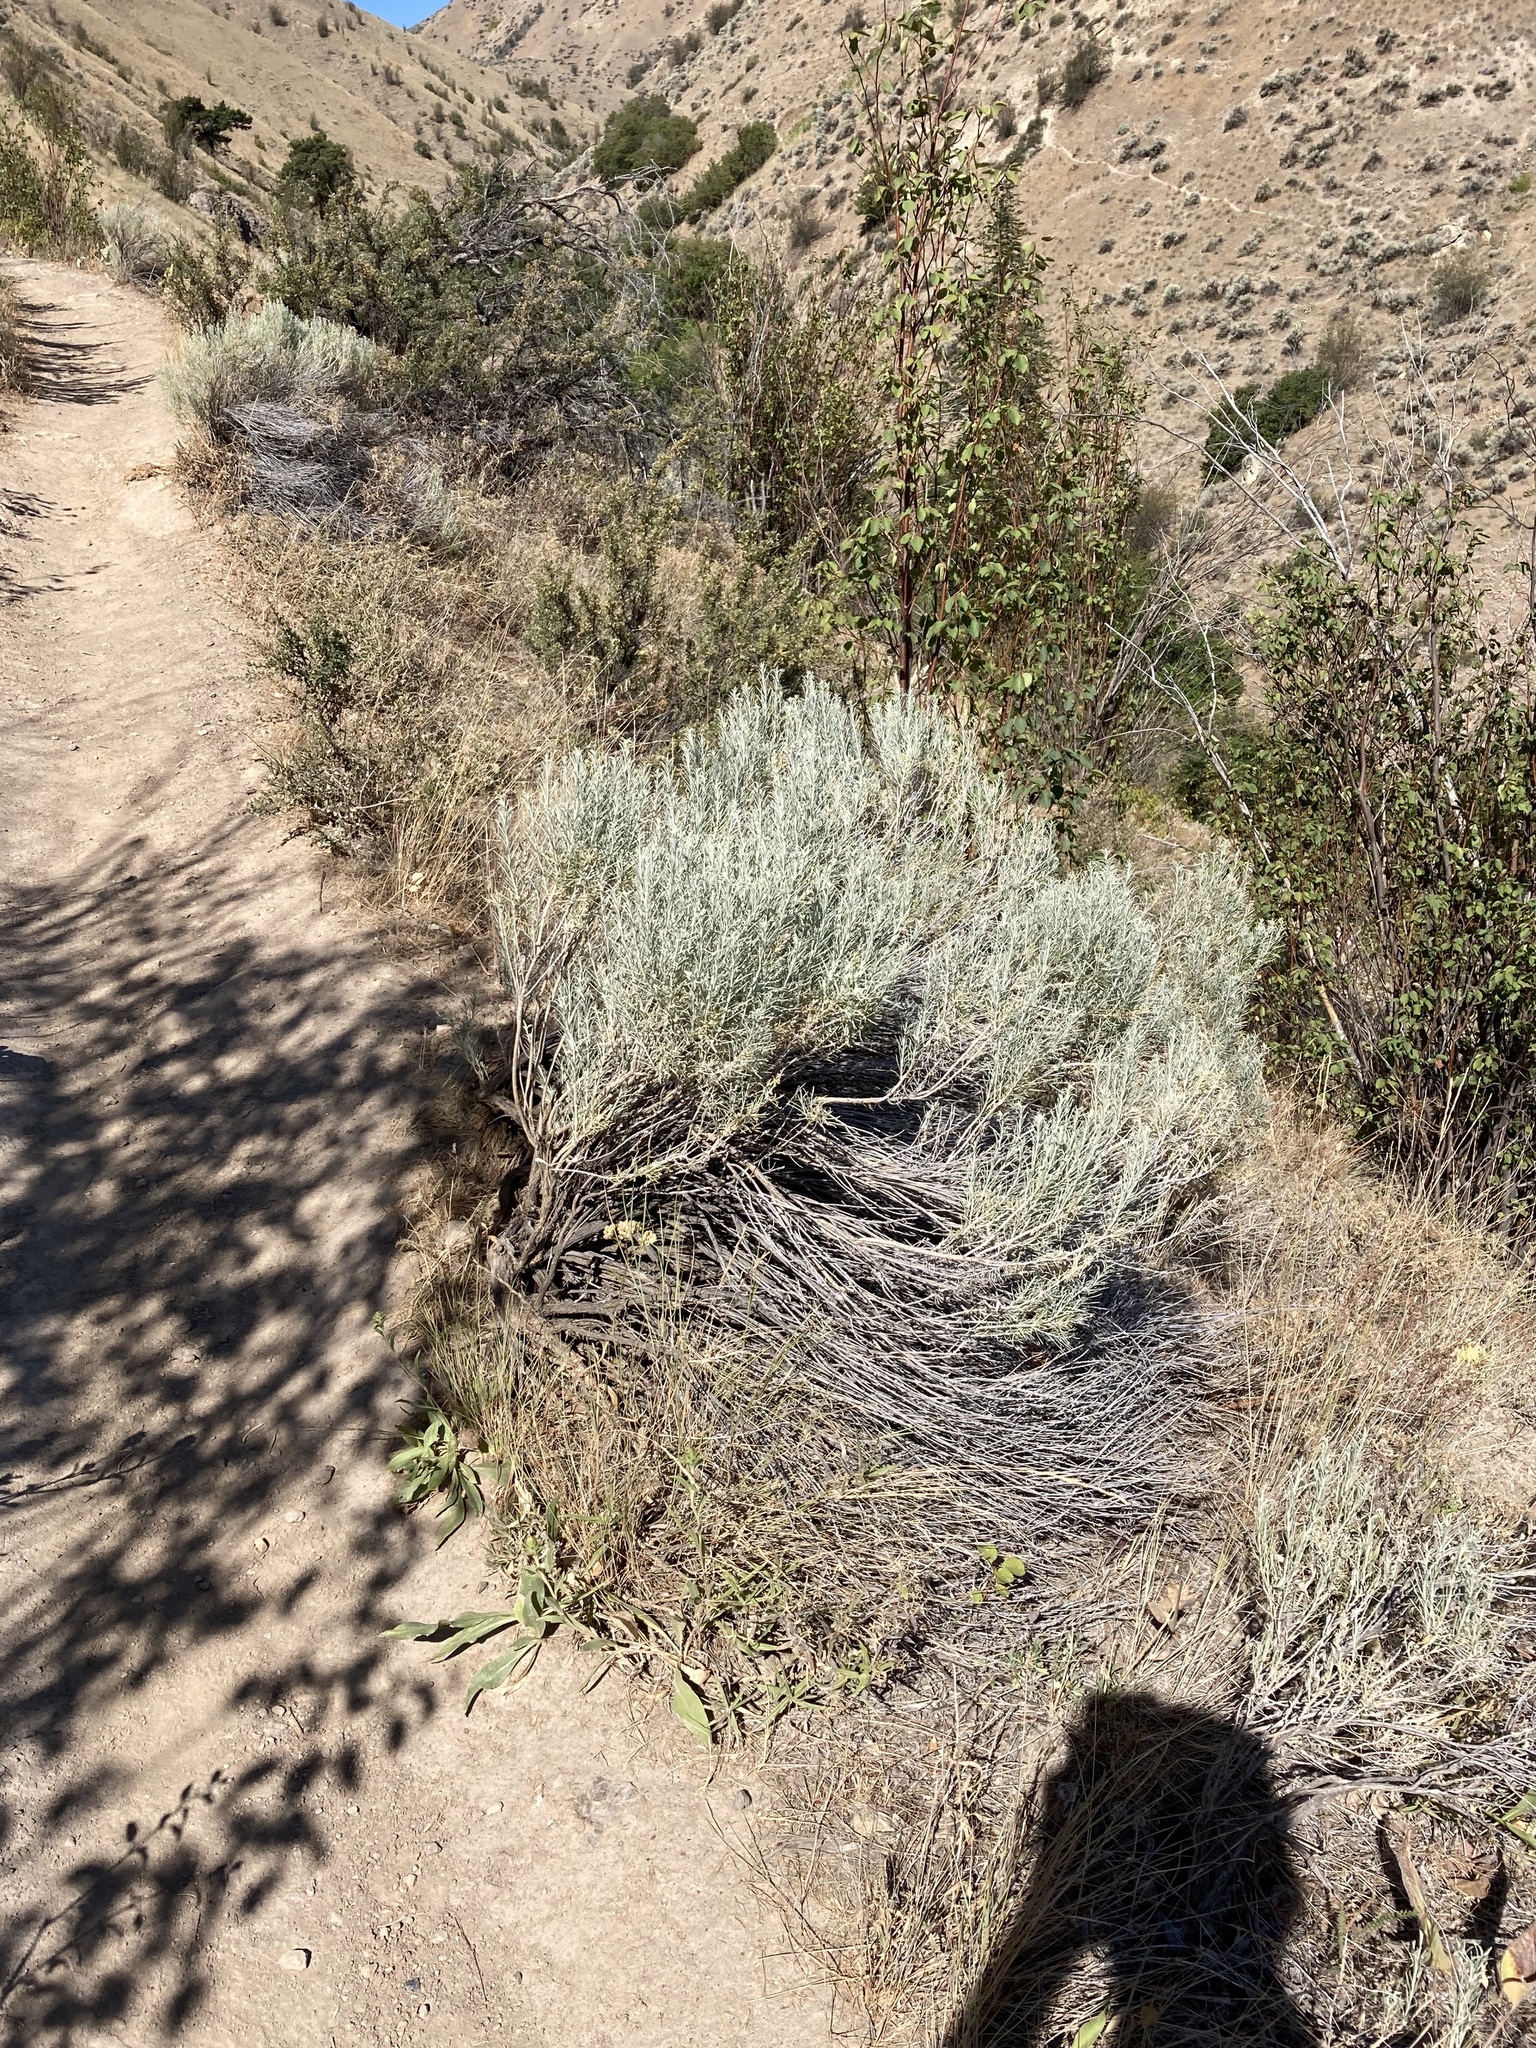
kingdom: Plantae
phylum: Tracheophyta
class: Magnoliopsida
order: Asterales
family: Asteraceae
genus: Ericameria
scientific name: Ericameria nauseosa
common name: Rubber rabbitbrush
